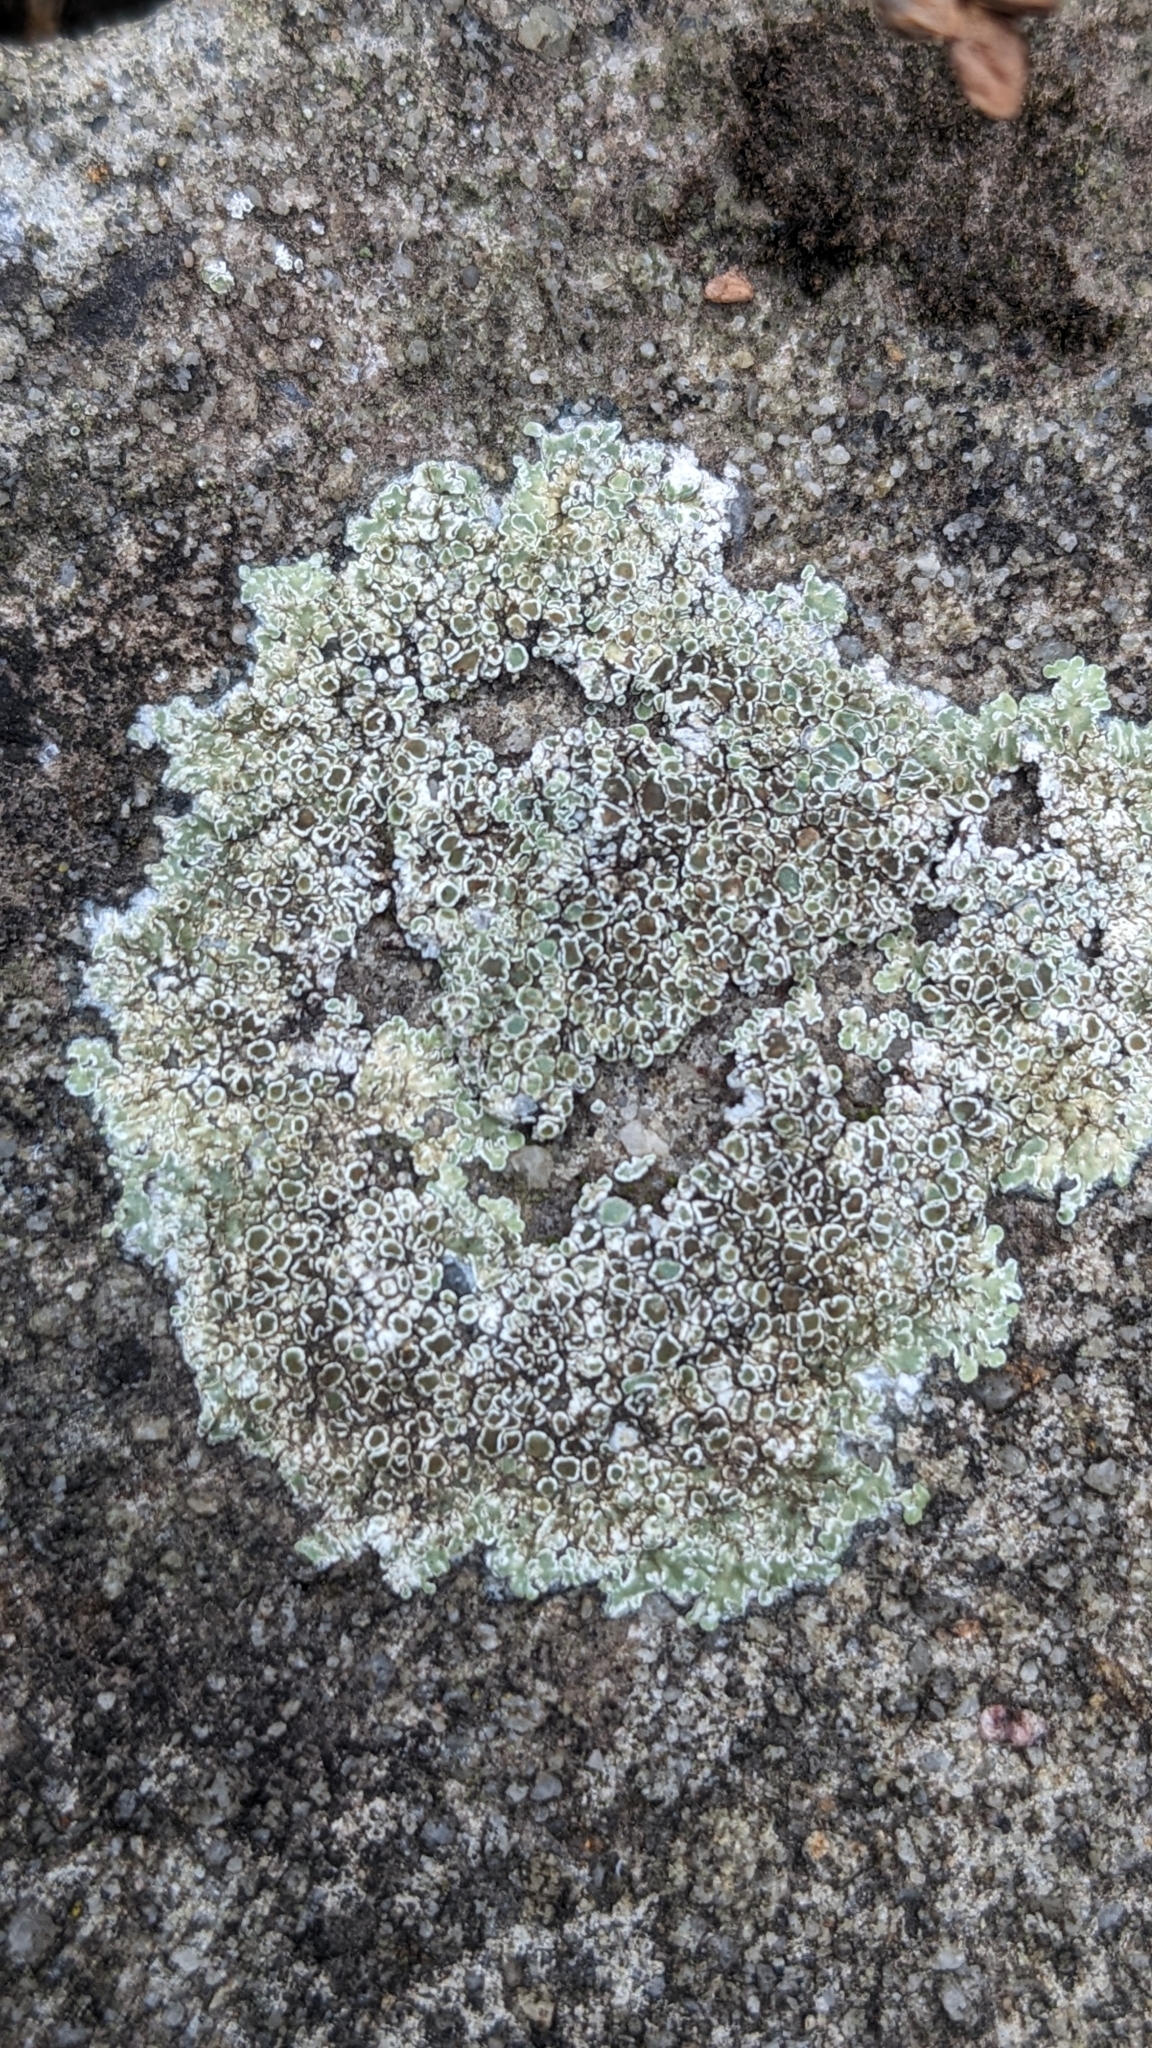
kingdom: Fungi
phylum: Ascomycota
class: Lecanoromycetes
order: Lecanorales
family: Lecanoraceae
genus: Protoparmeliopsis
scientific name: Protoparmeliopsis muralis
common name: Stonewall rim lichen
